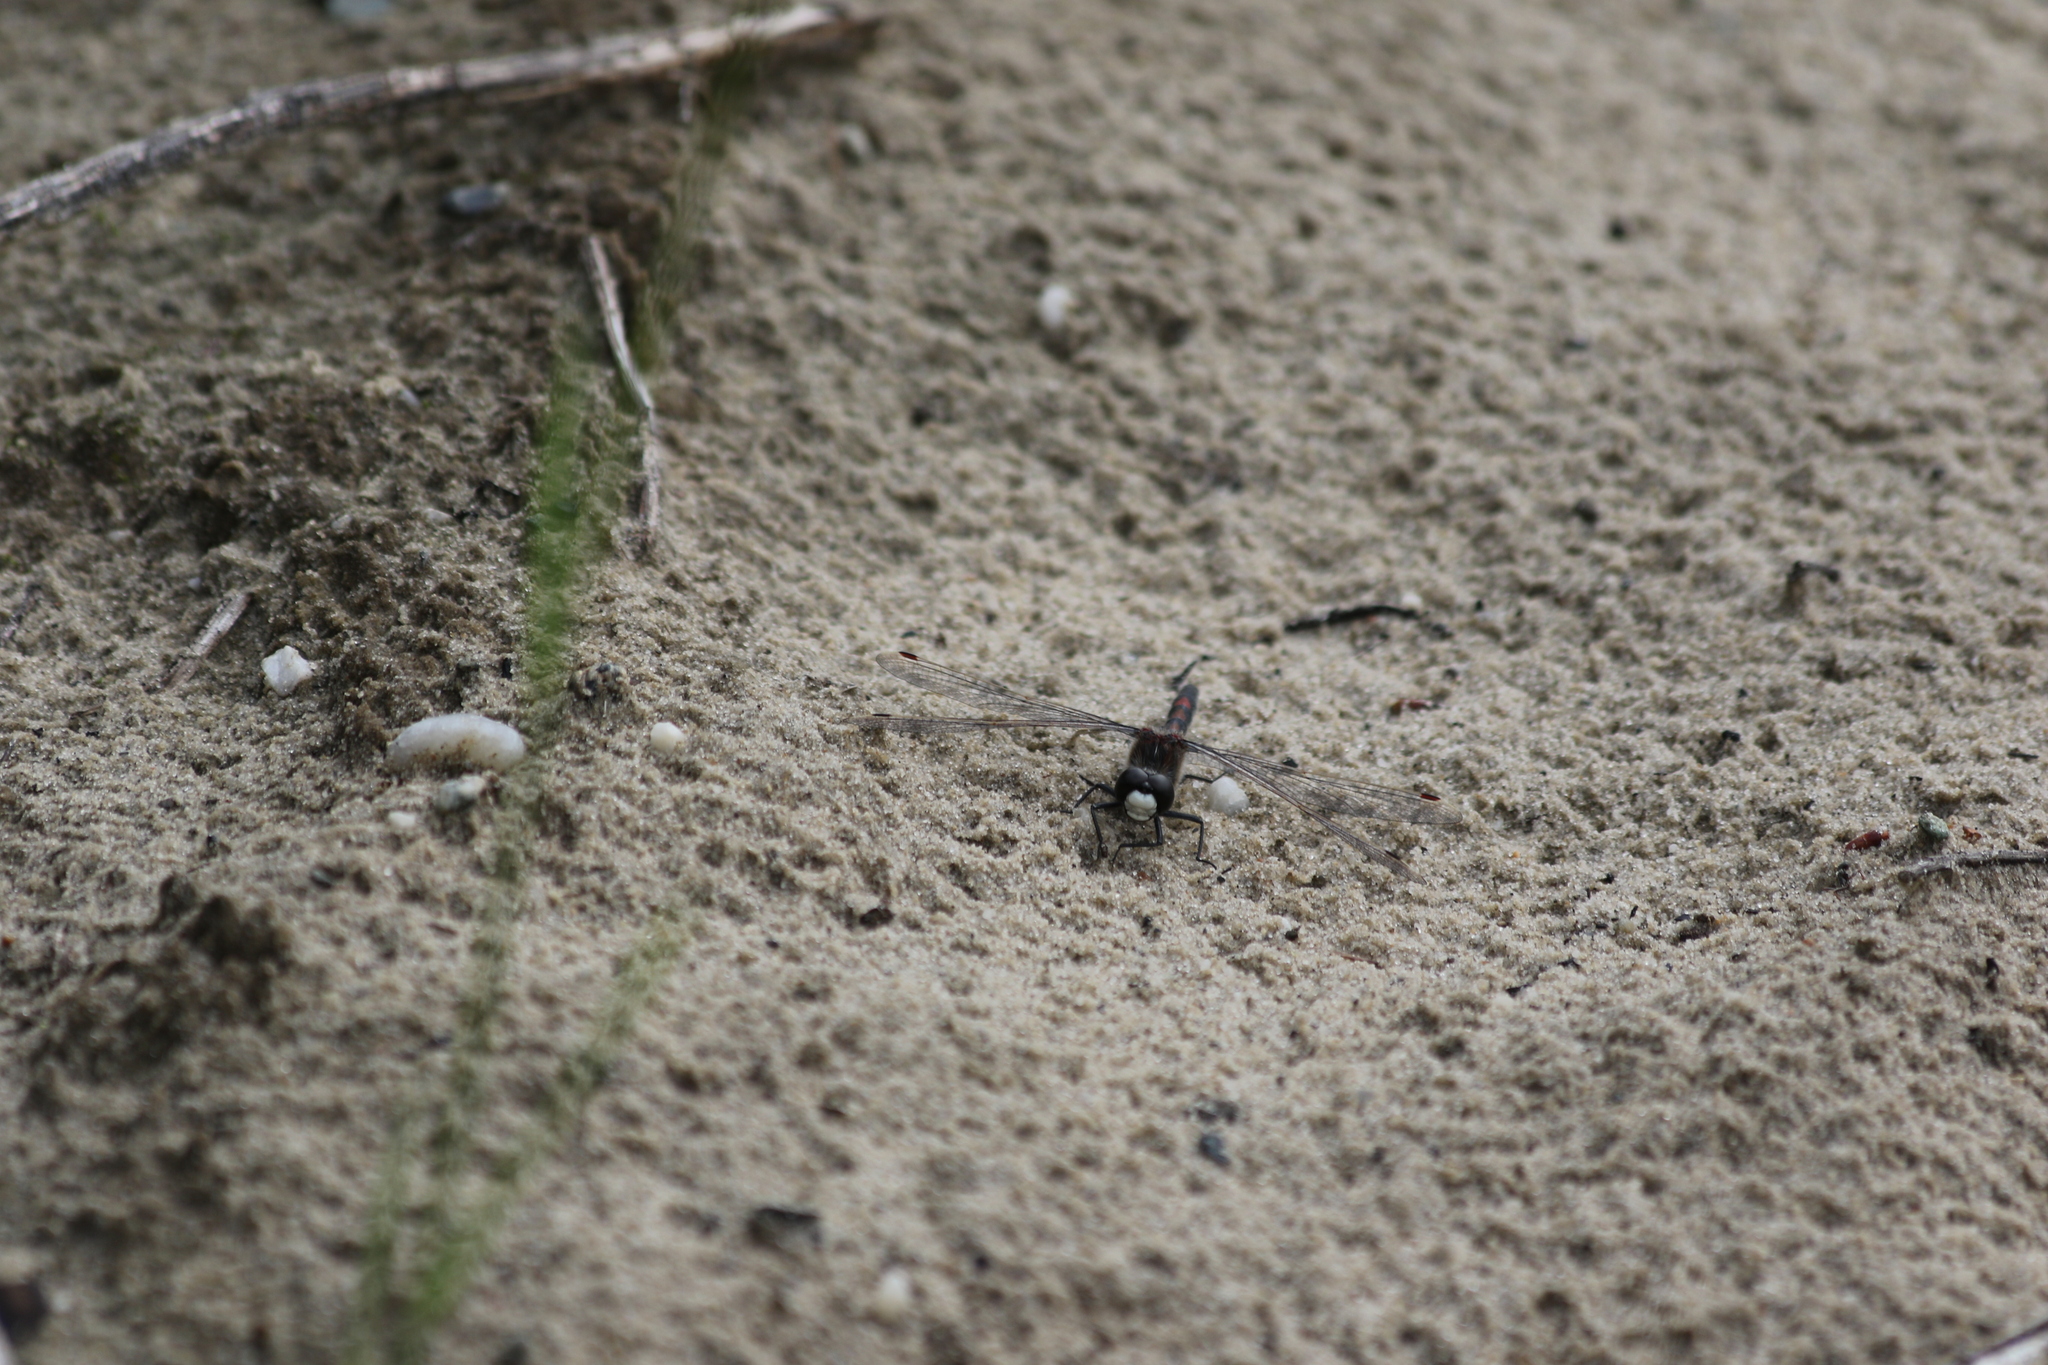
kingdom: Animalia
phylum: Arthropoda
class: Insecta
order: Odonata
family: Libellulidae
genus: Leucorrhinia
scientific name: Leucorrhinia rubicunda
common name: Ruby whiteface
